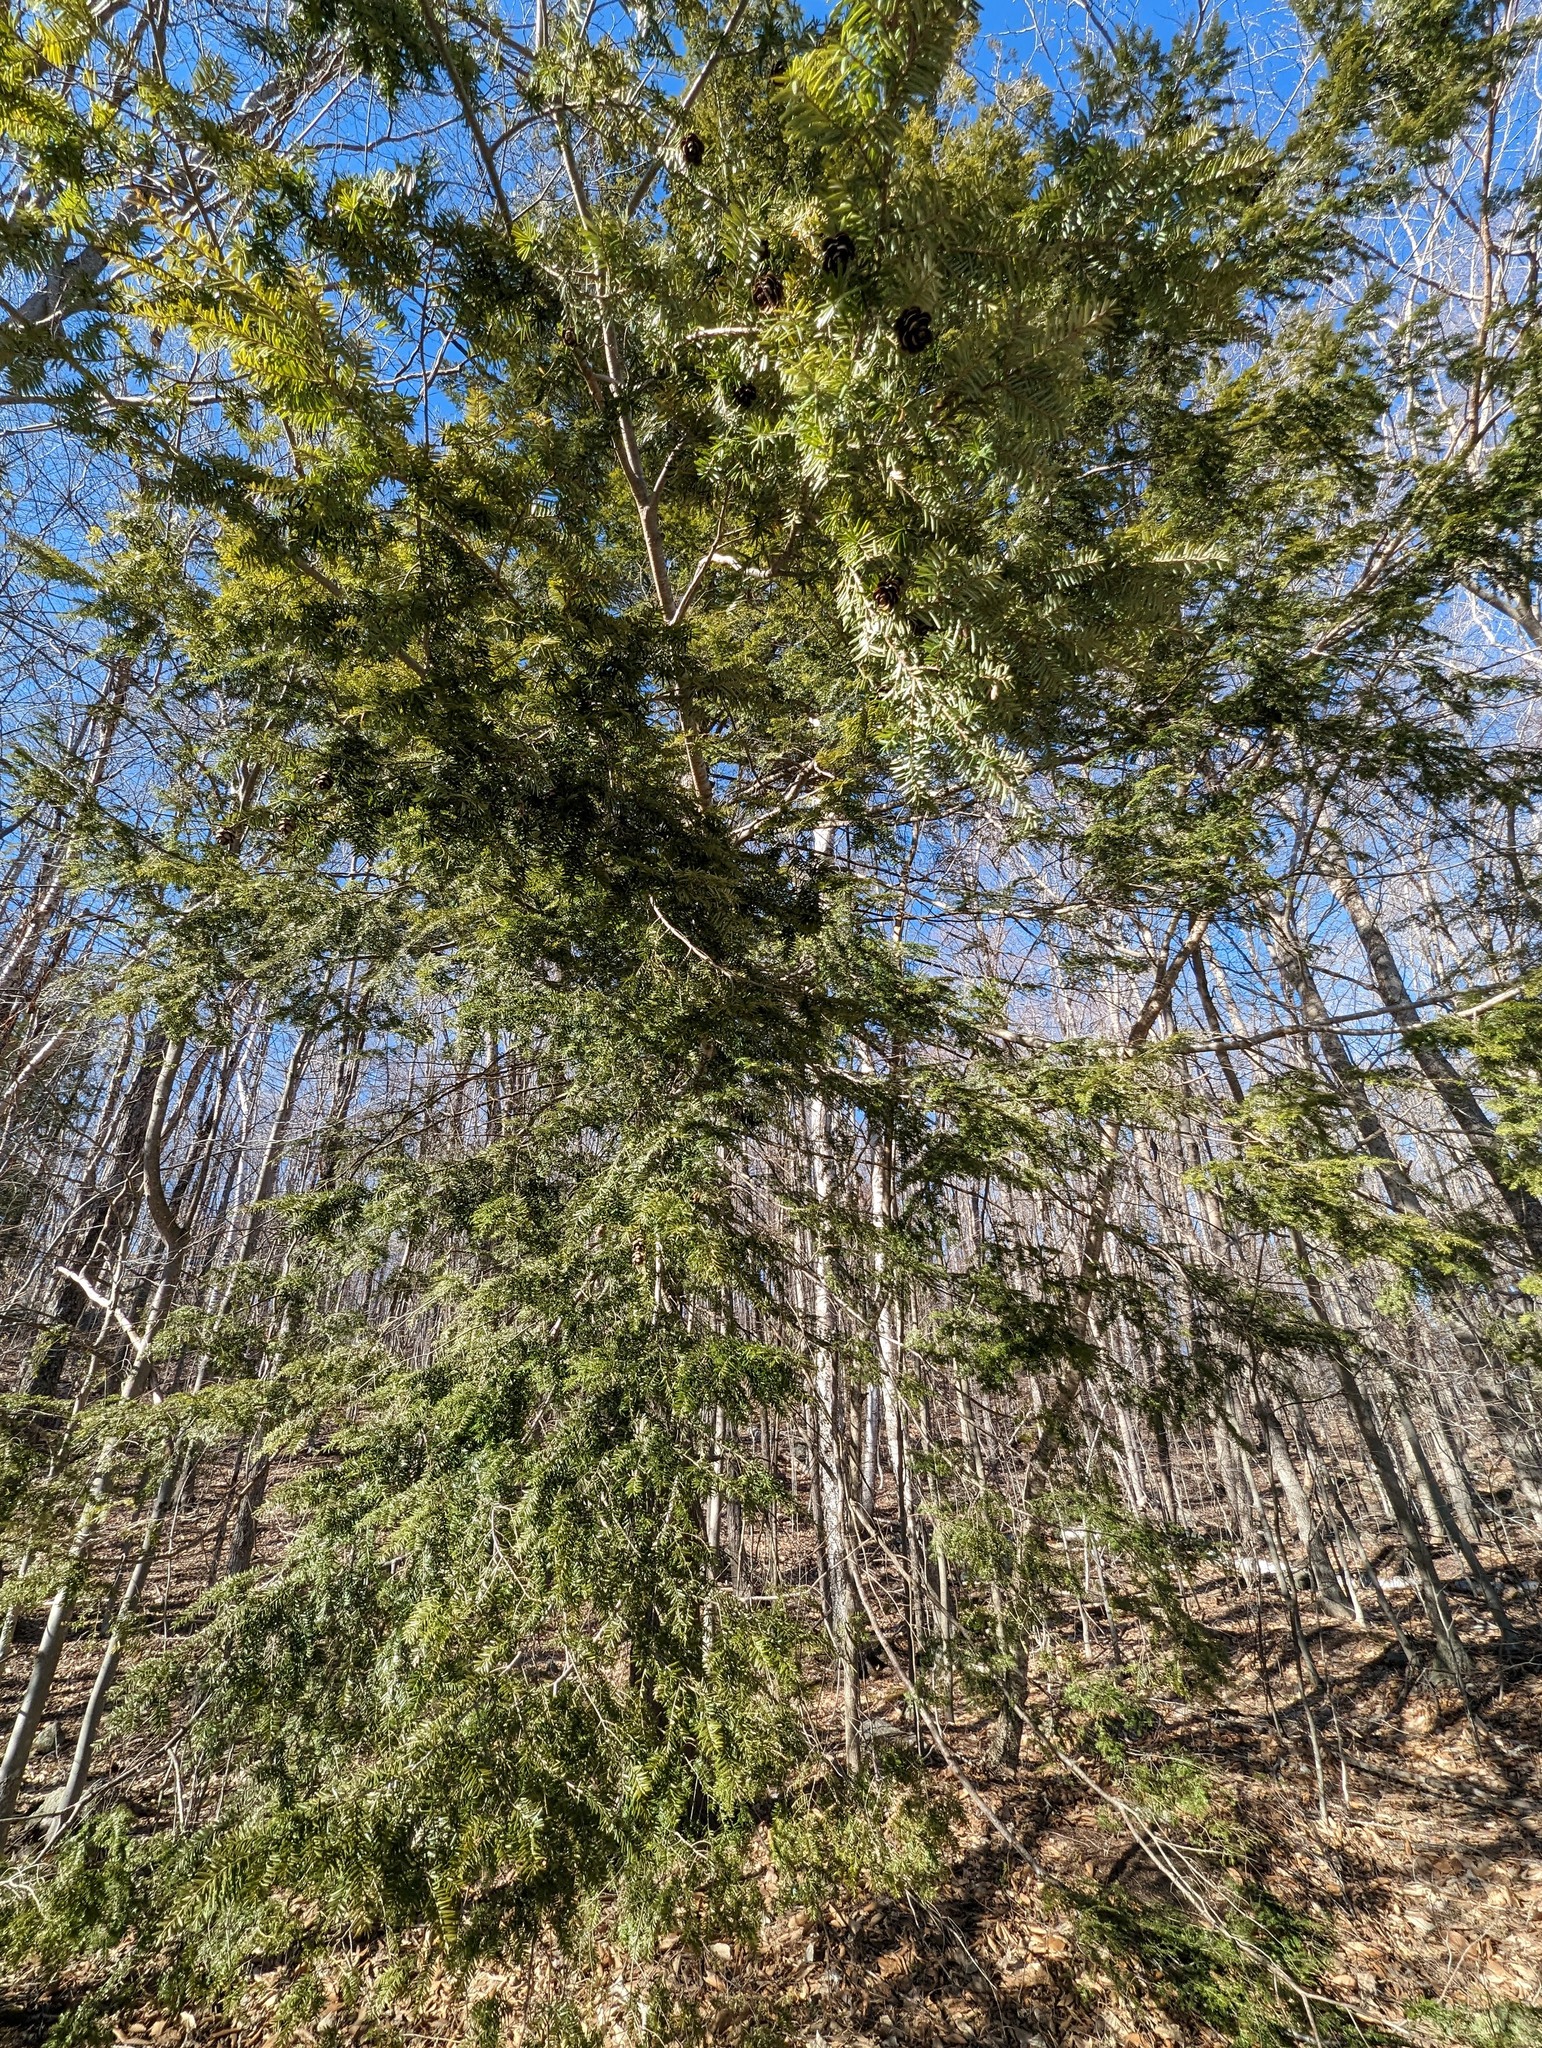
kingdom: Plantae
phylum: Tracheophyta
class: Pinopsida
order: Pinales
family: Pinaceae
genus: Tsuga
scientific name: Tsuga canadensis
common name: Eastern hemlock
